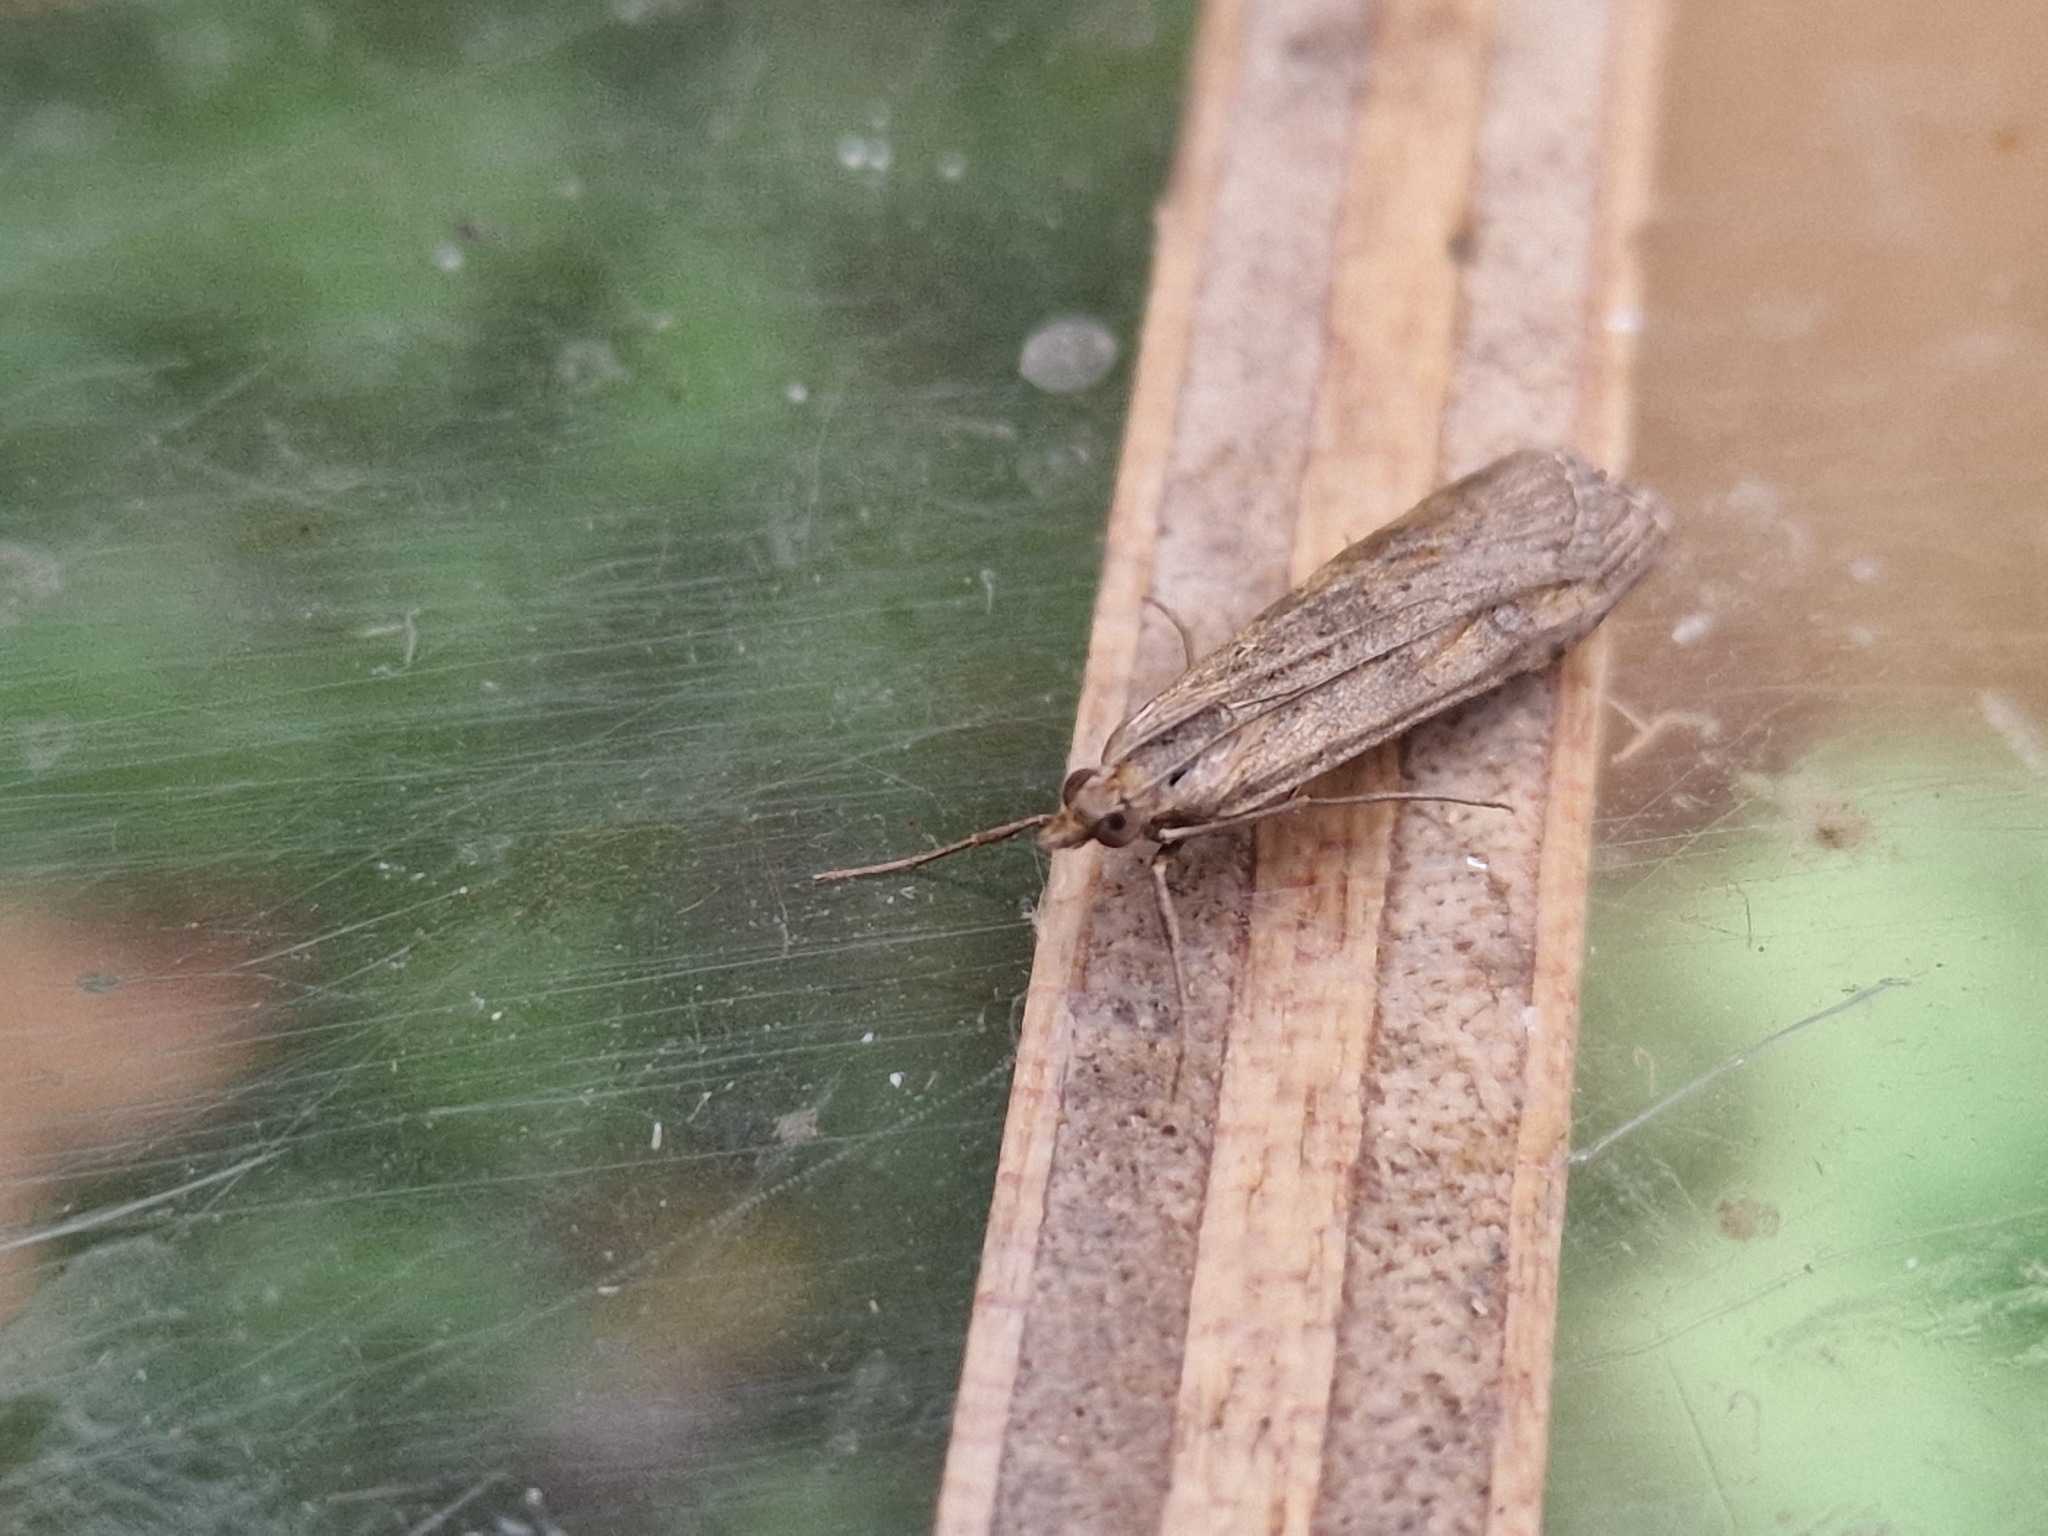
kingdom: Animalia
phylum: Arthropoda
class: Insecta
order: Lepidoptera
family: Crambidae
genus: Nomophila
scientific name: Nomophila noctuella
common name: Rush veneer
